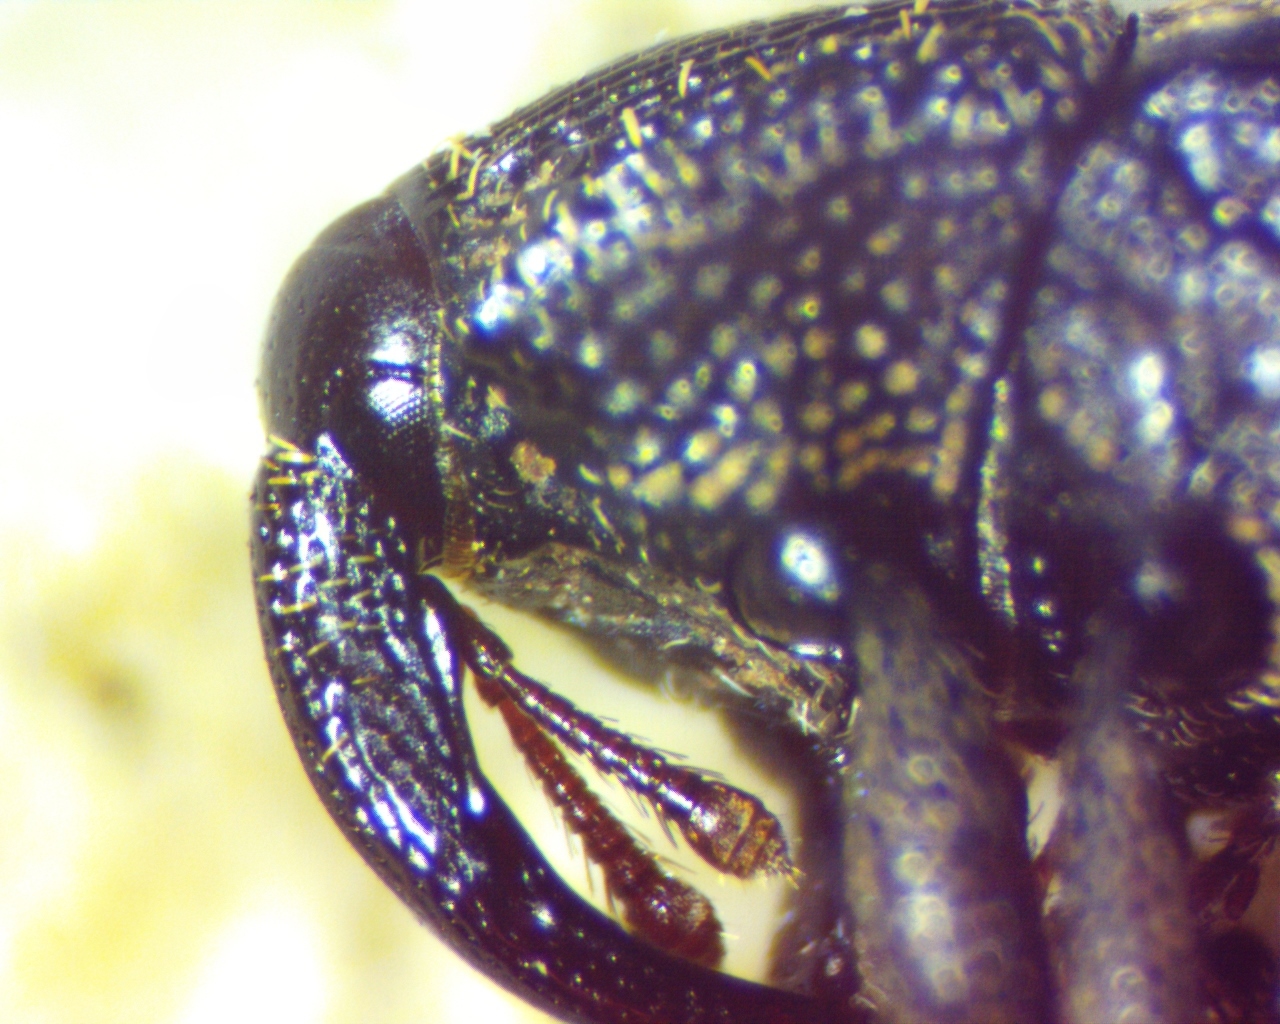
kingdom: Animalia
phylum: Arthropoda
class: Insecta
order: Coleoptera
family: Curculionidae
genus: Glyptobaris
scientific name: Glyptobaris lecontei
